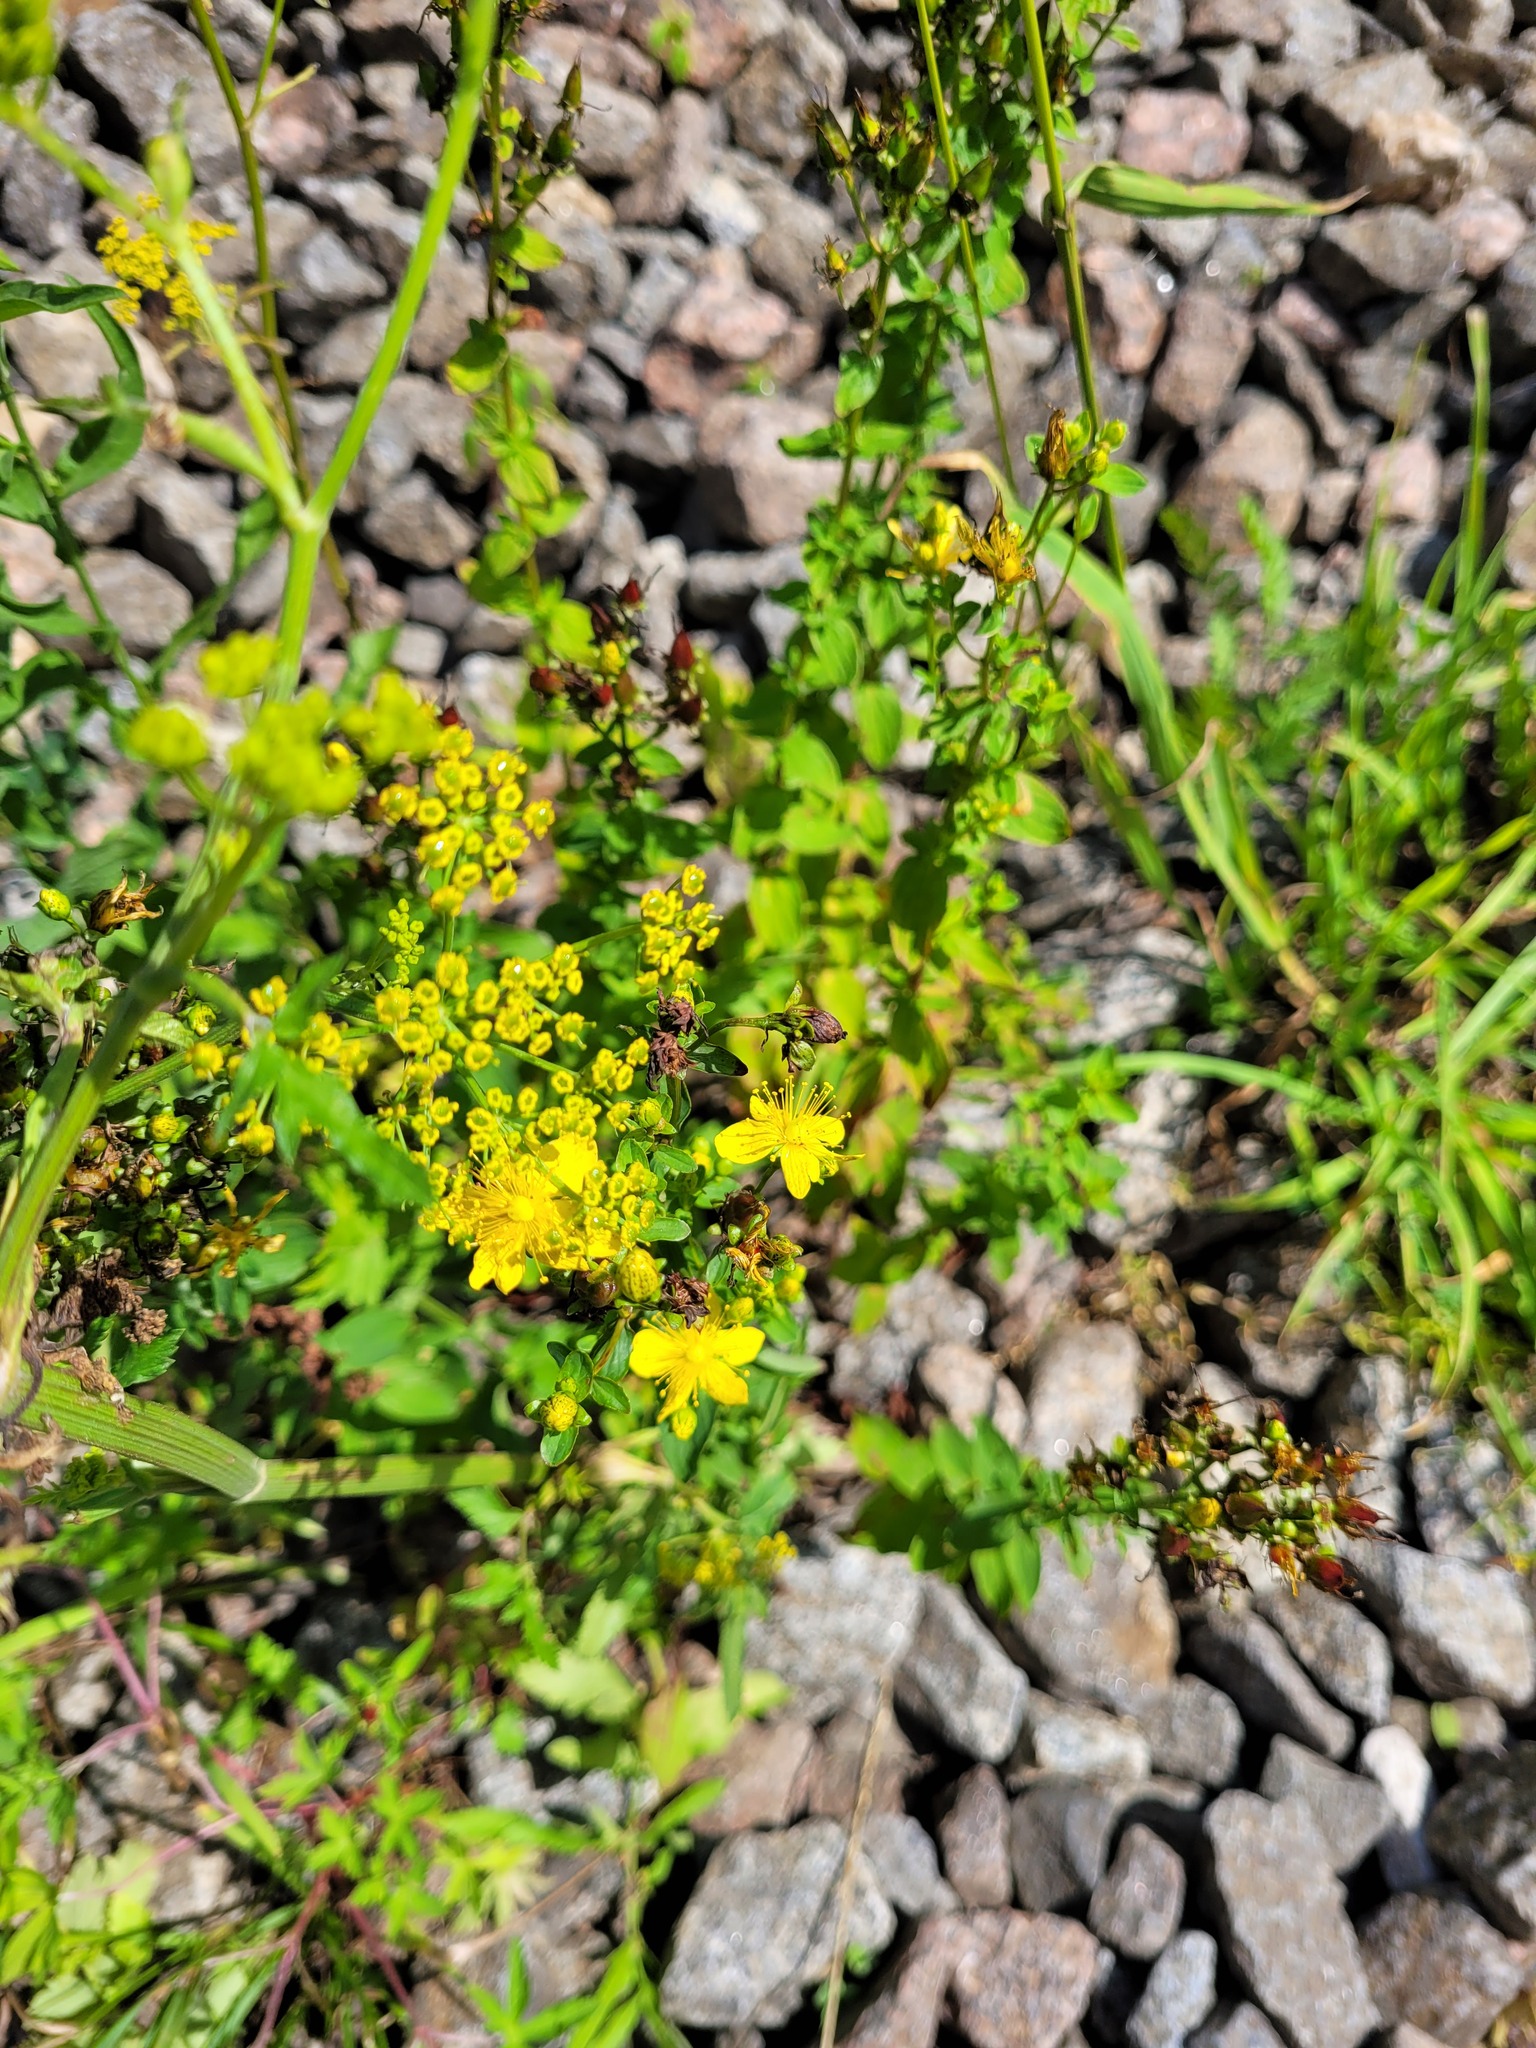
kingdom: Plantae
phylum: Tracheophyta
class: Magnoliopsida
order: Malpighiales
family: Hypericaceae
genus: Hypericum
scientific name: Hypericum maculatum
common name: Imperforate st. john's-wort
